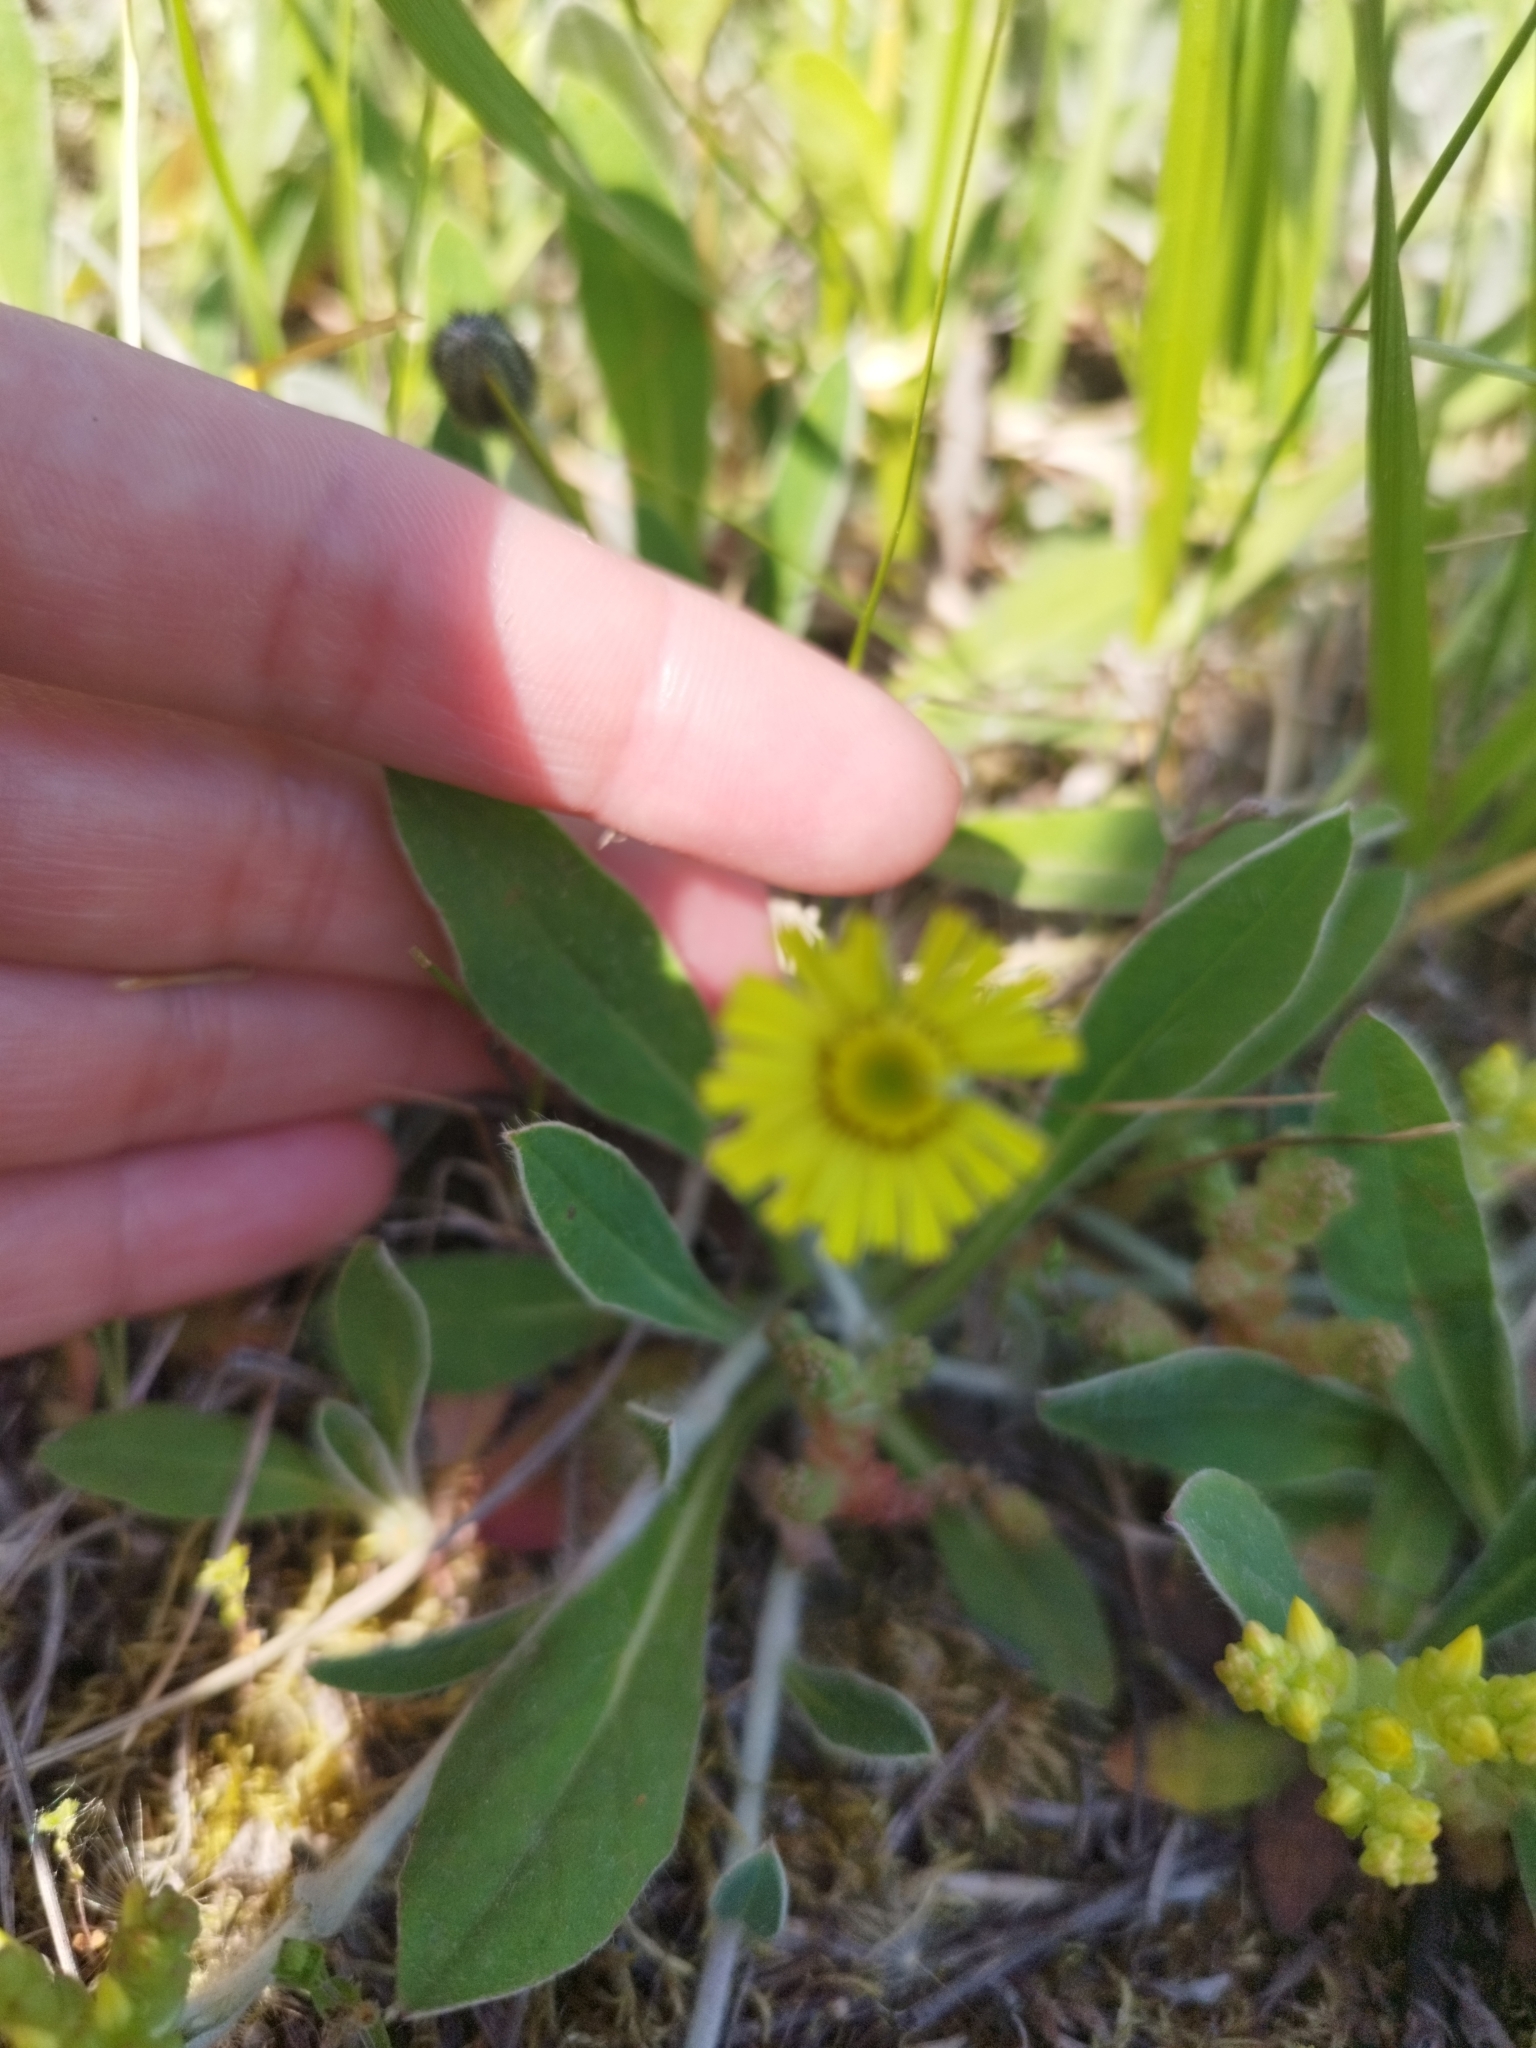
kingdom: Plantae
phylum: Tracheophyta
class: Magnoliopsida
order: Asterales
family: Asteraceae
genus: Pilosella
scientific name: Pilosella officinarum
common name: Mouse-ear hawkweed
